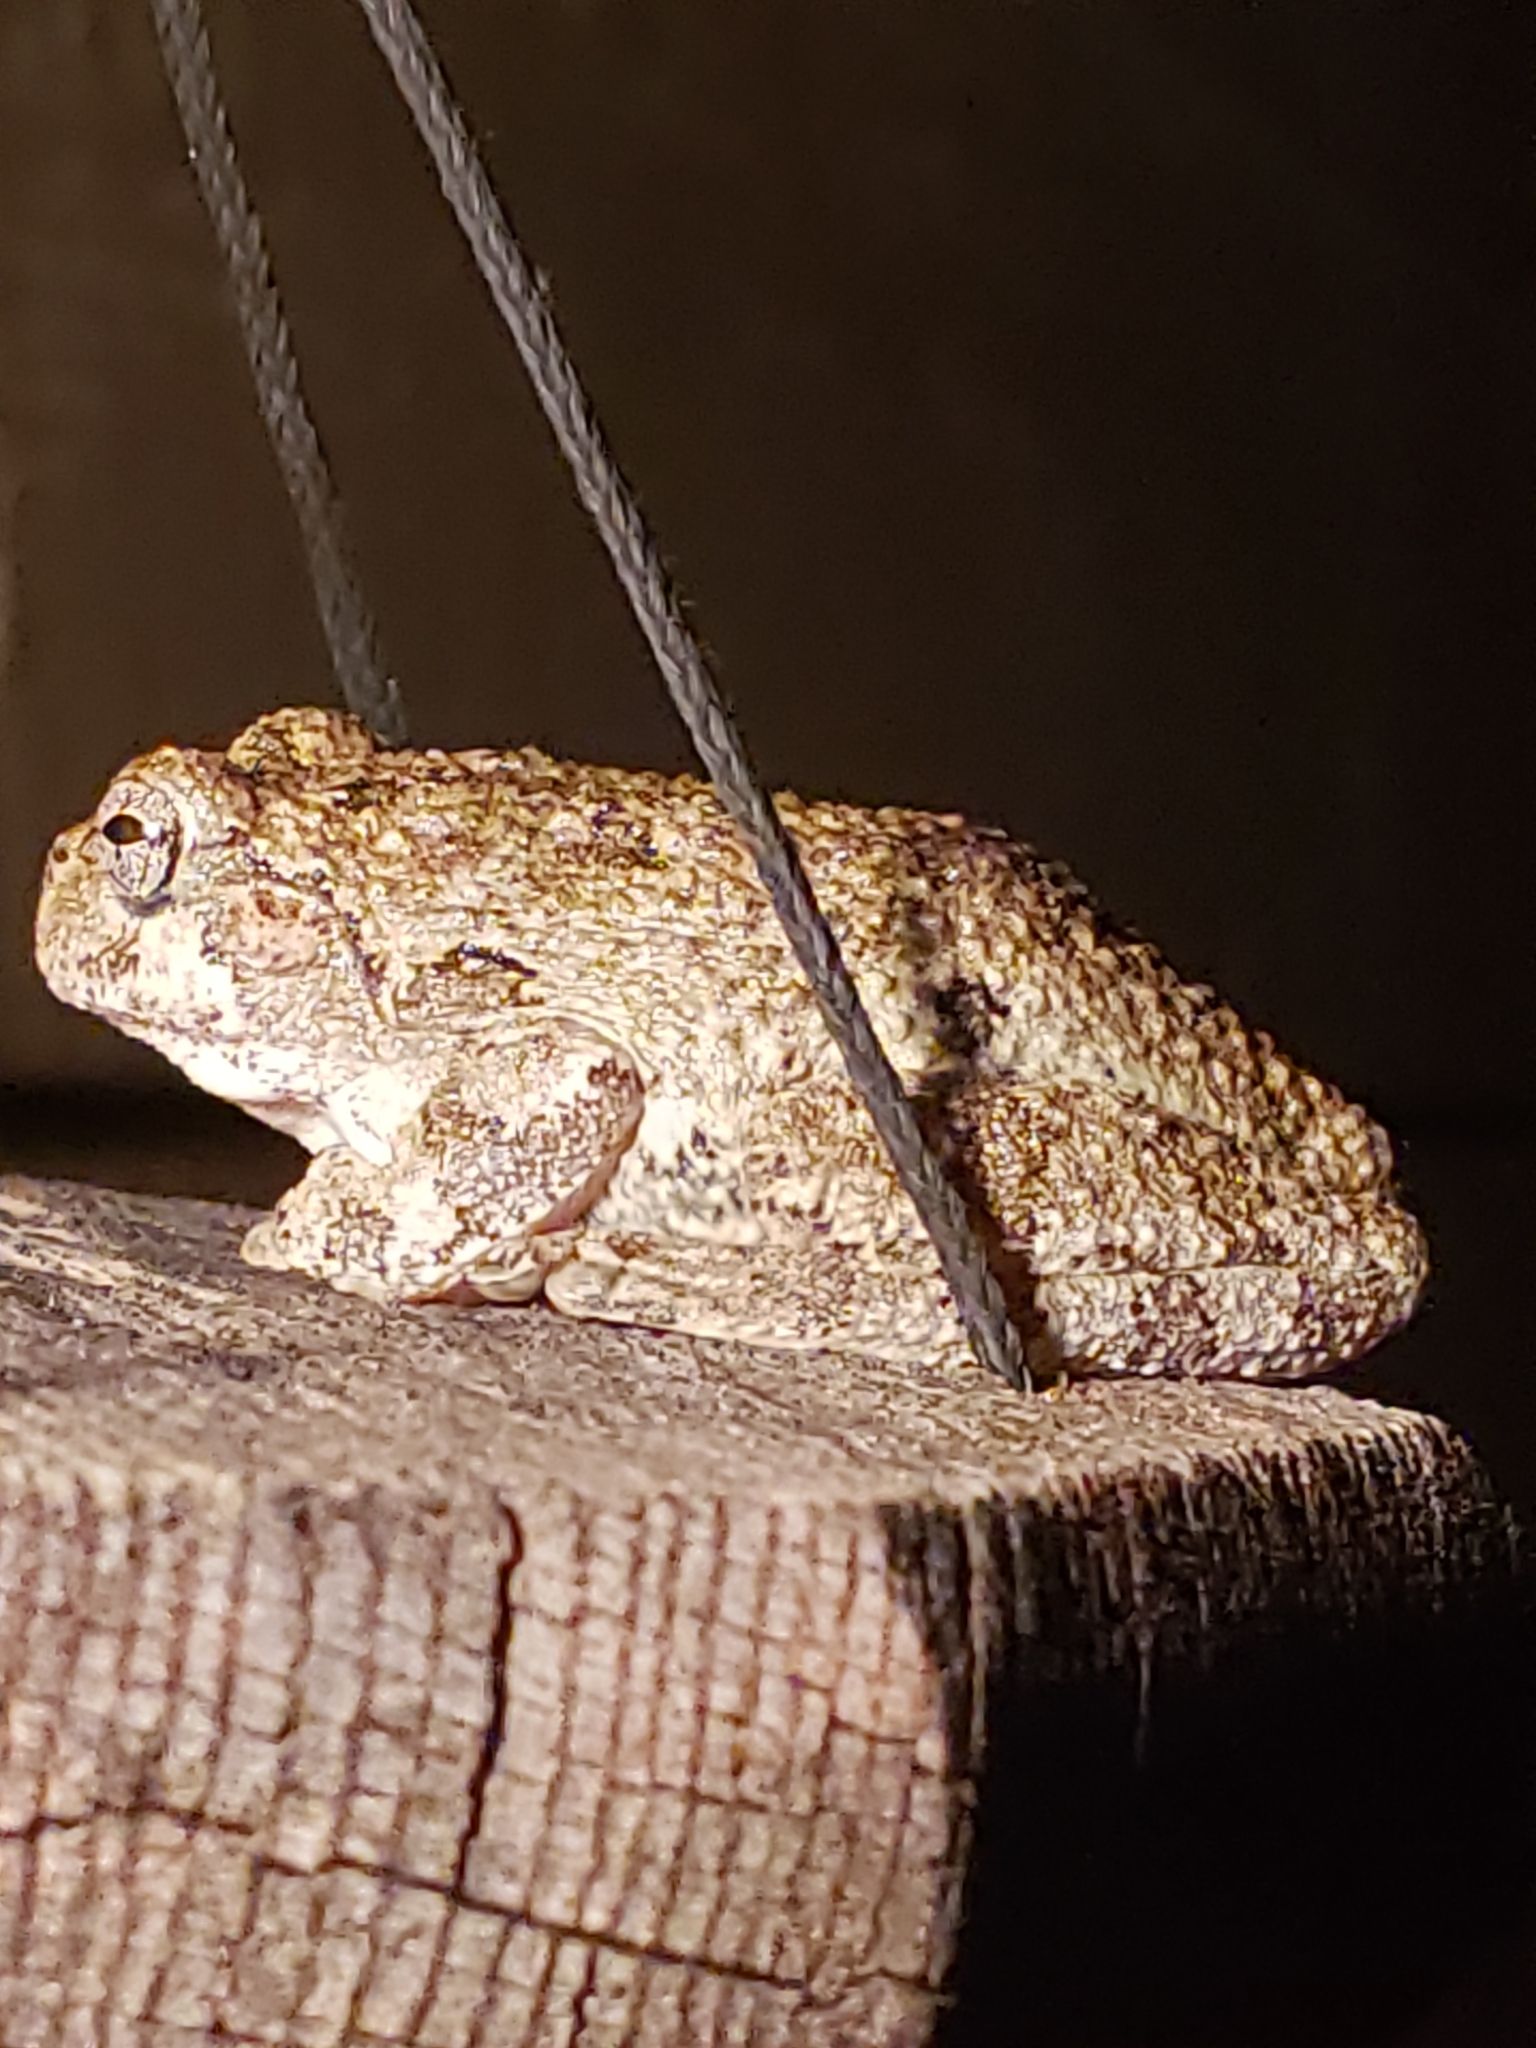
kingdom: Animalia
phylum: Chordata
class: Amphibia
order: Anura
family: Hylidae
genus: Hyla
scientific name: Hyla
